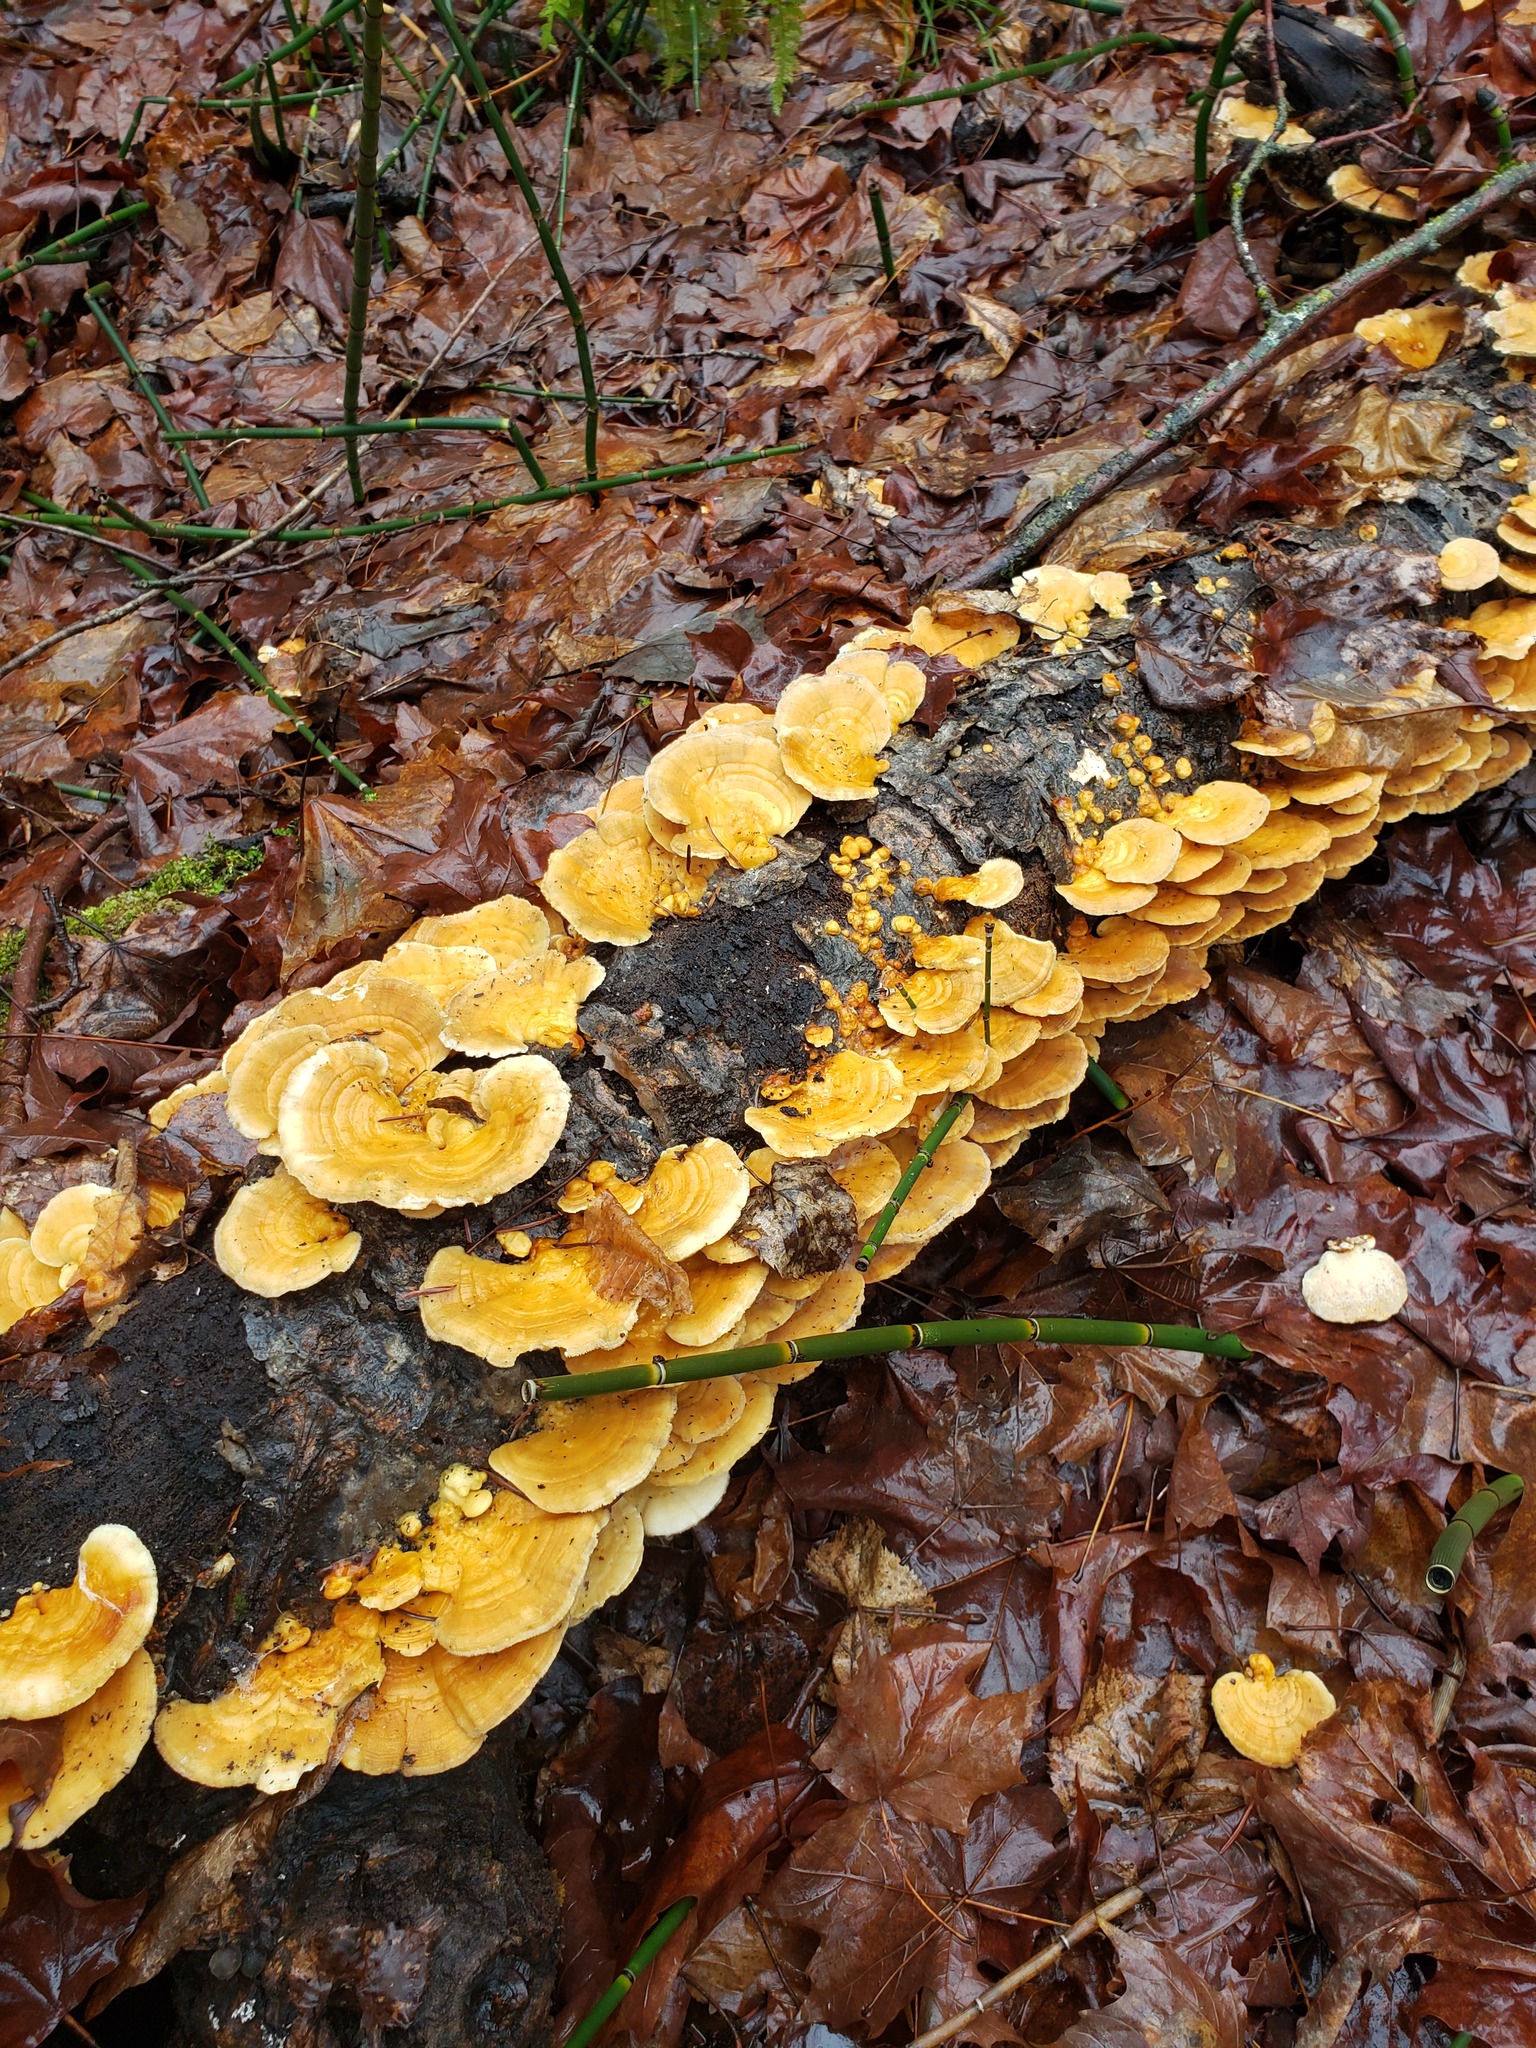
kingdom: Fungi
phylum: Basidiomycota
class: Agaricomycetes
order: Polyporales
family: Polyporaceae
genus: Trametes
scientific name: Trametes ochracea
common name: Ochre bracket
